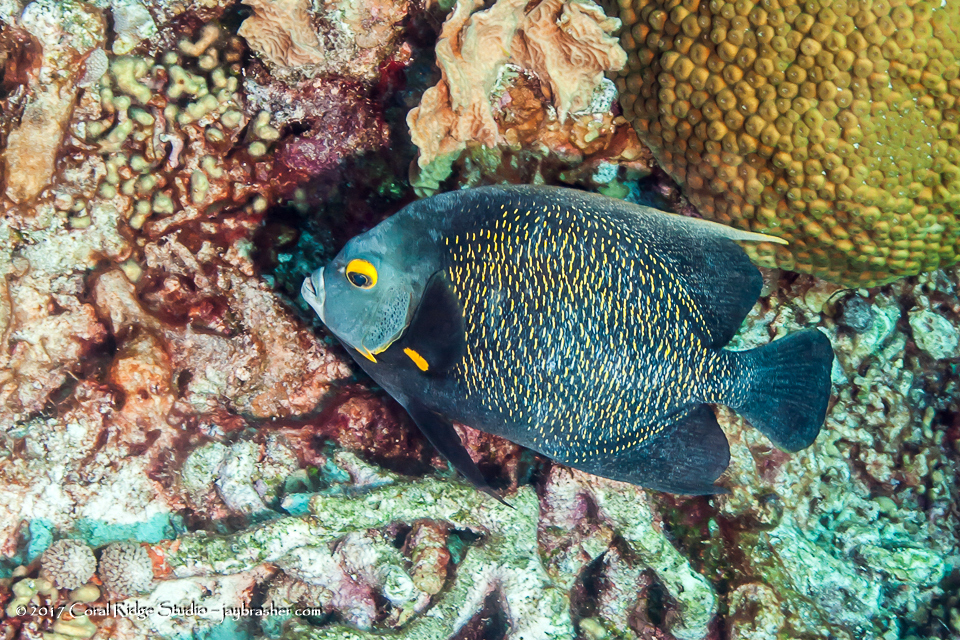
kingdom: Animalia
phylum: Chordata
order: Perciformes
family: Pomacanthidae
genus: Pomacanthus
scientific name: Pomacanthus paru
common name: French angelfish
